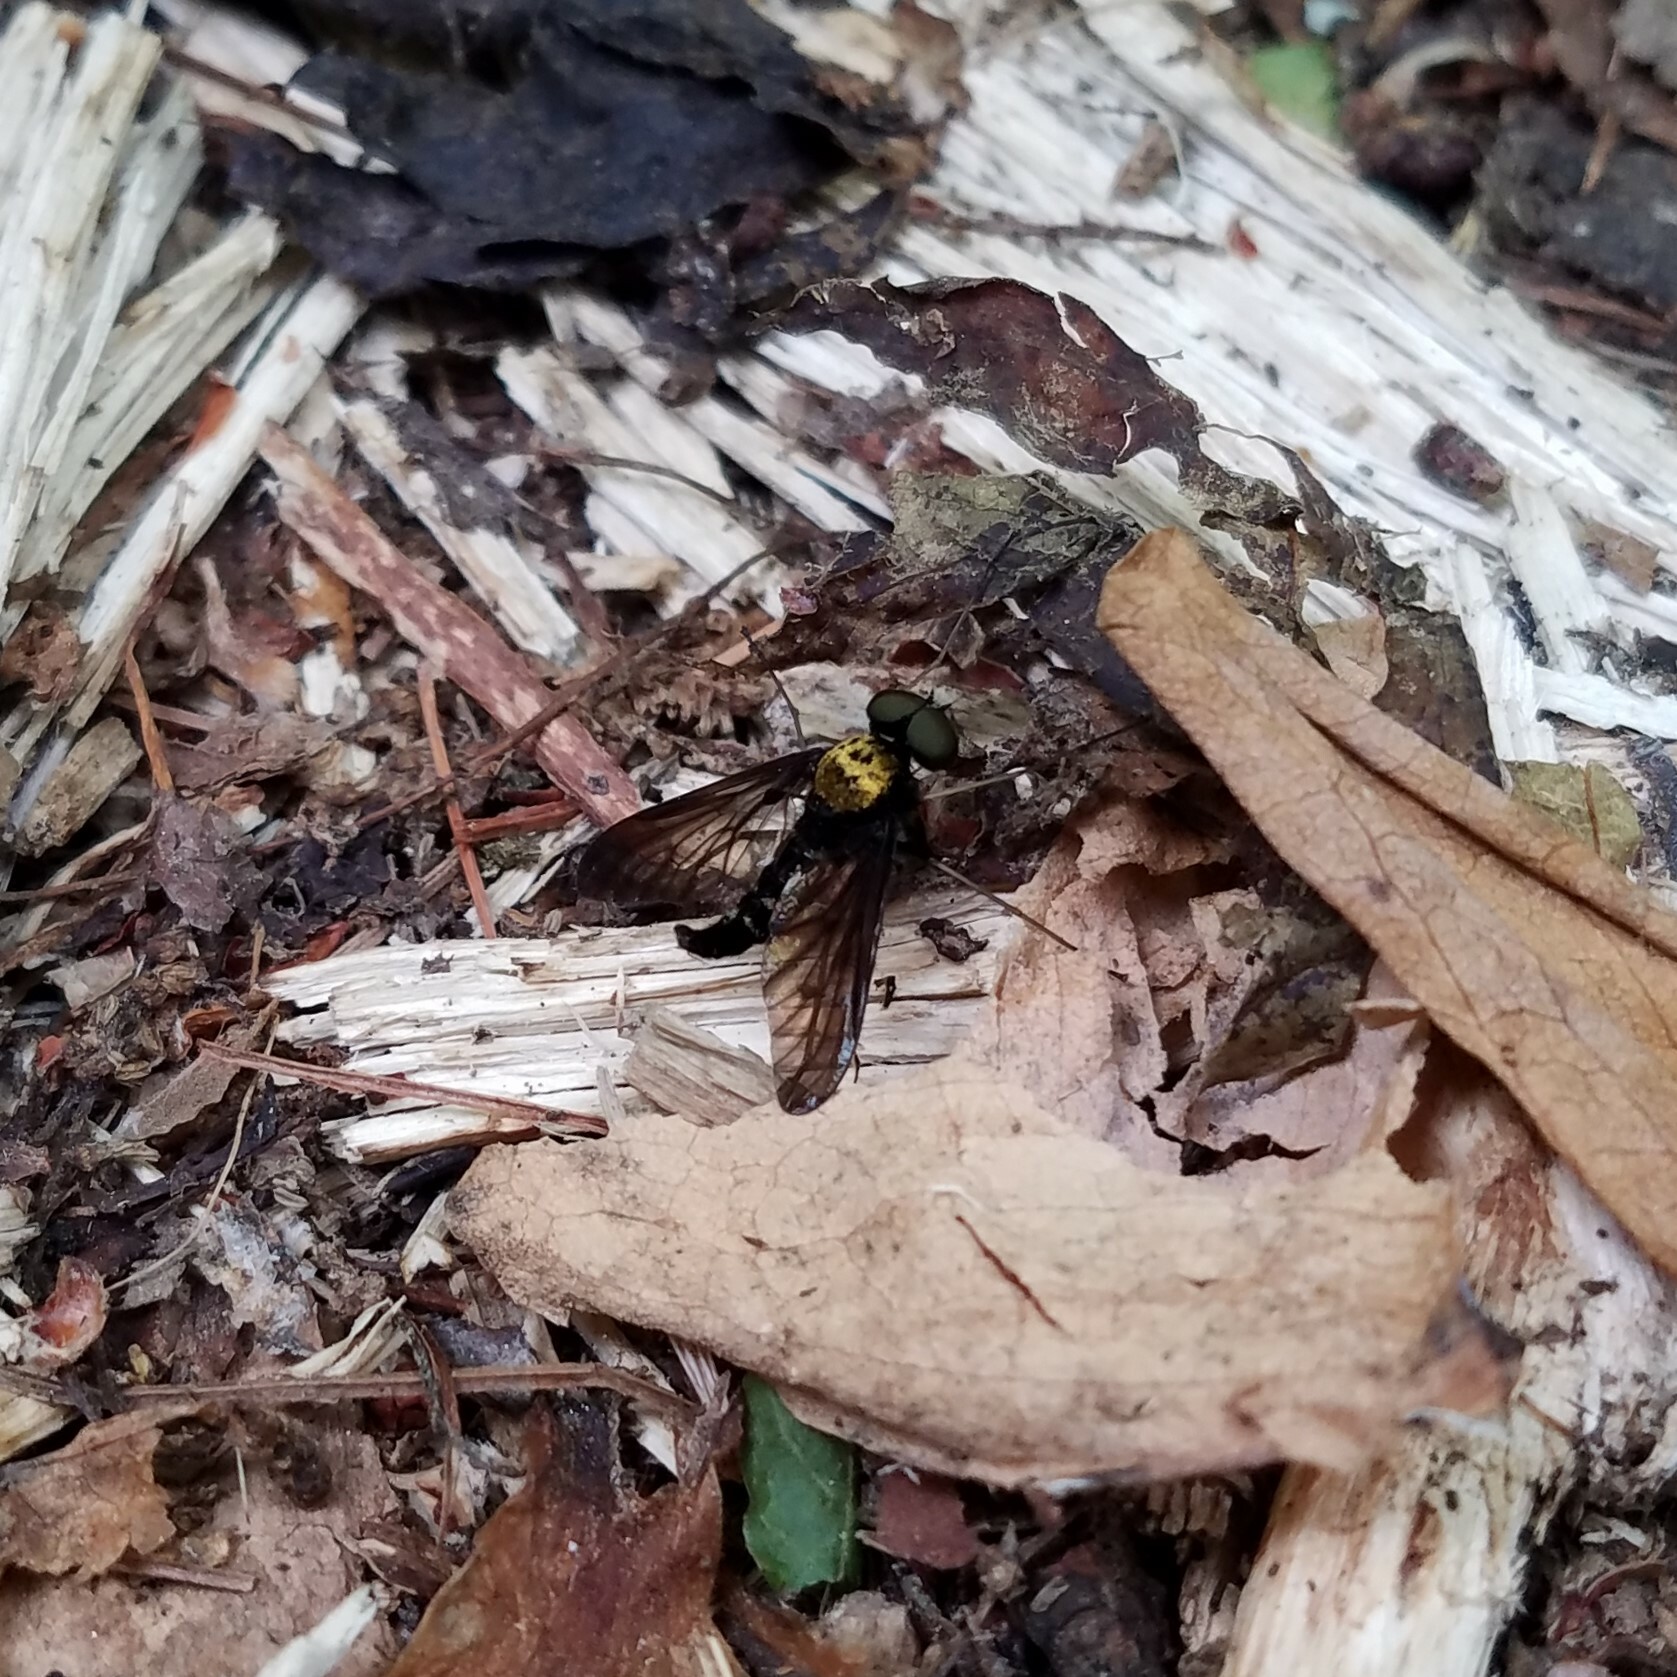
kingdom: Animalia
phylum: Arthropoda
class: Insecta
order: Diptera
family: Rhagionidae
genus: Chrysopilus
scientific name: Chrysopilus thoracicus
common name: Golden-backed snipe fly
